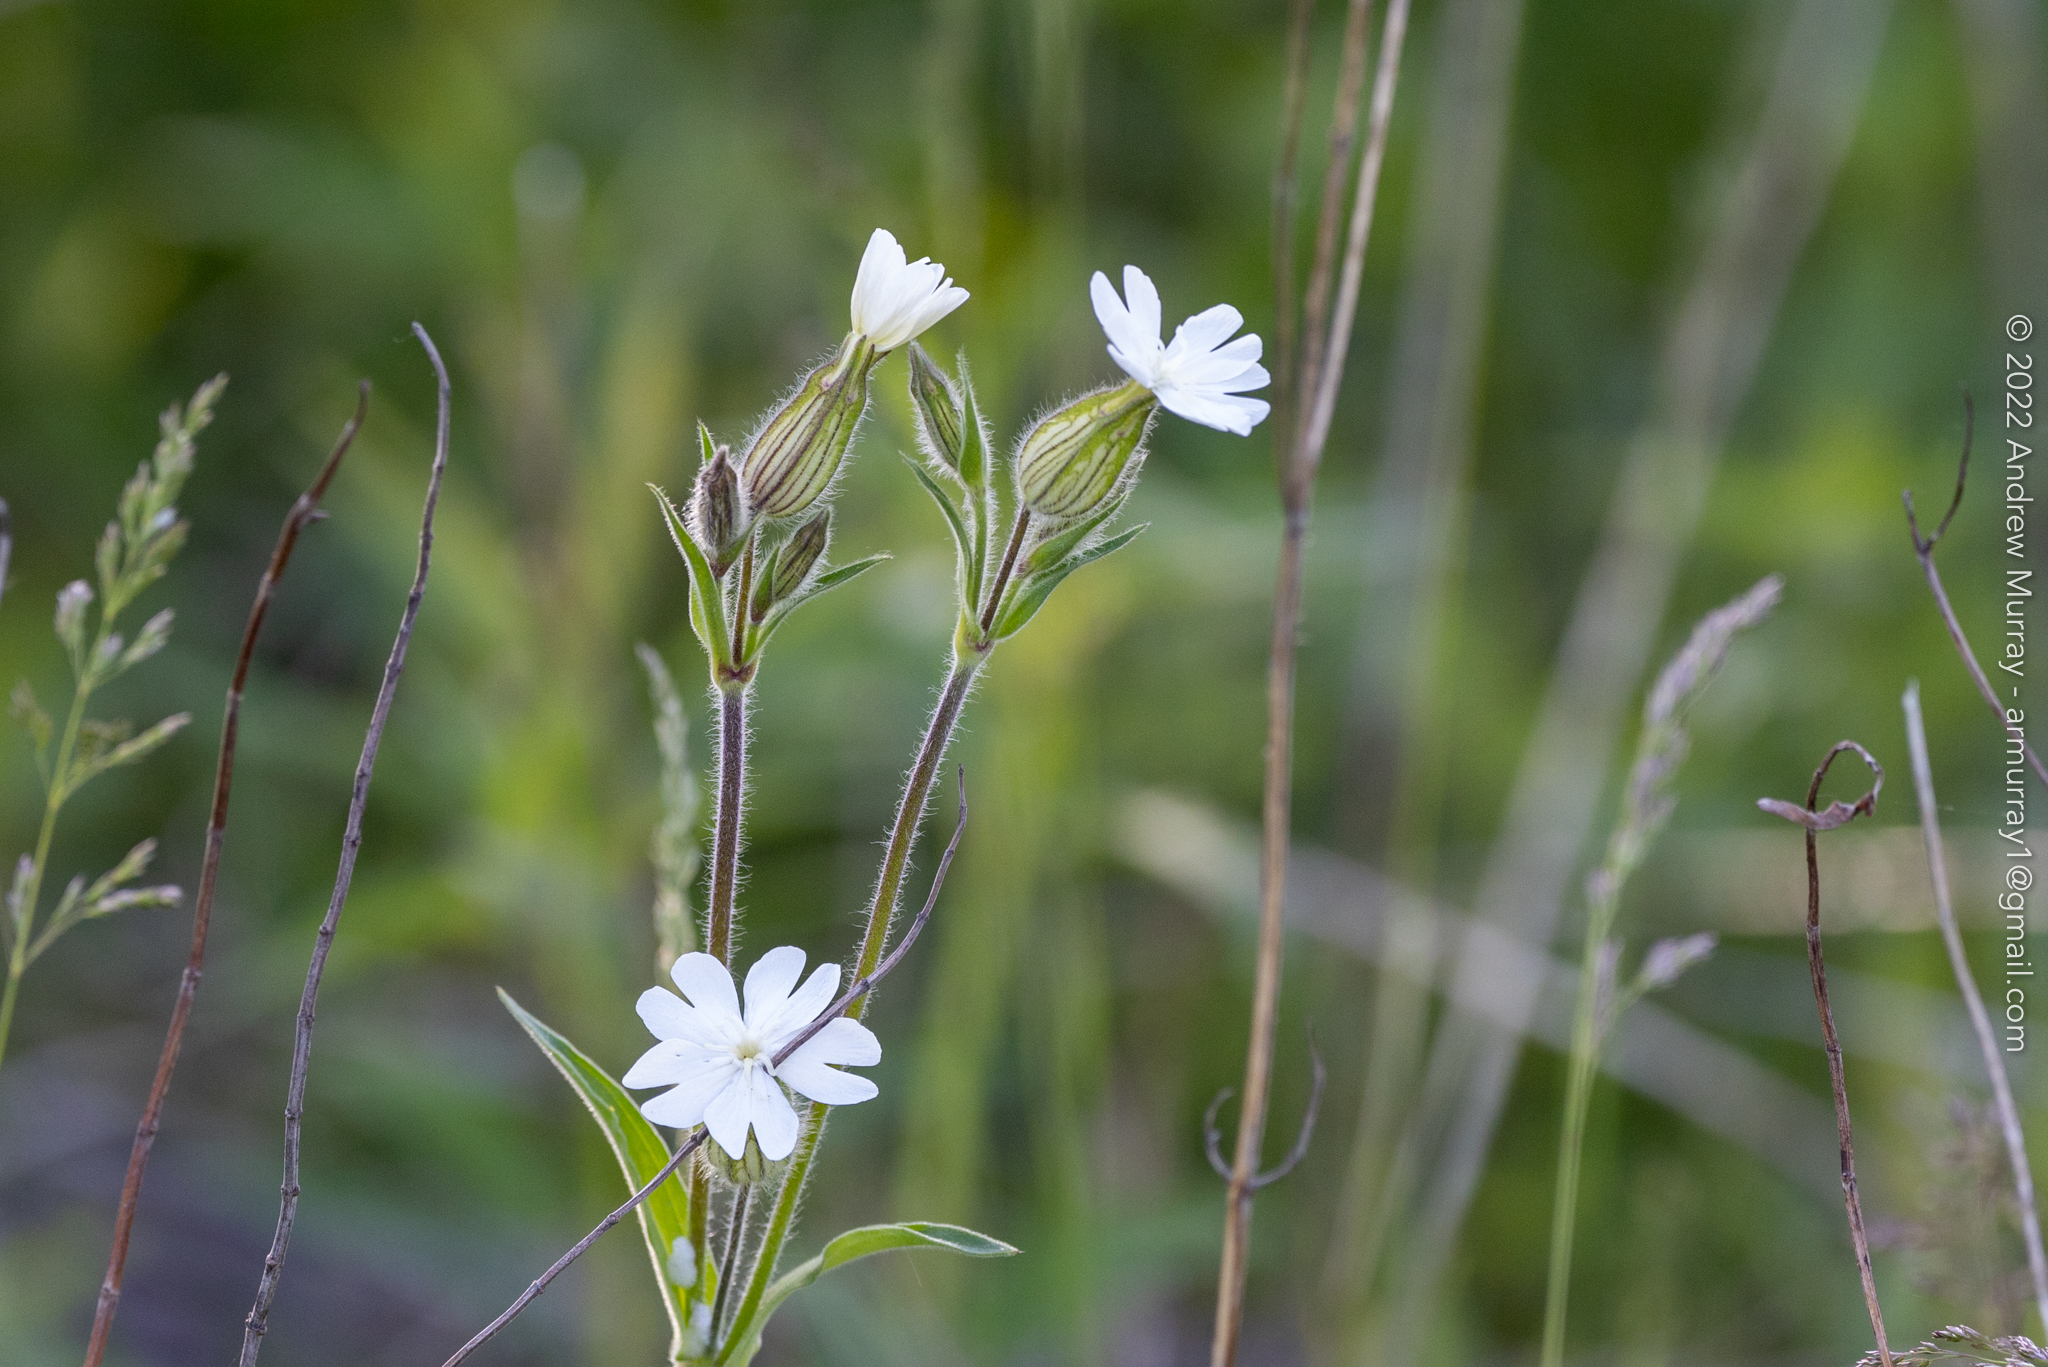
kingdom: Plantae
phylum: Tracheophyta
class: Magnoliopsida
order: Caryophyllales
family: Caryophyllaceae
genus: Silene
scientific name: Silene latifolia
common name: White campion
